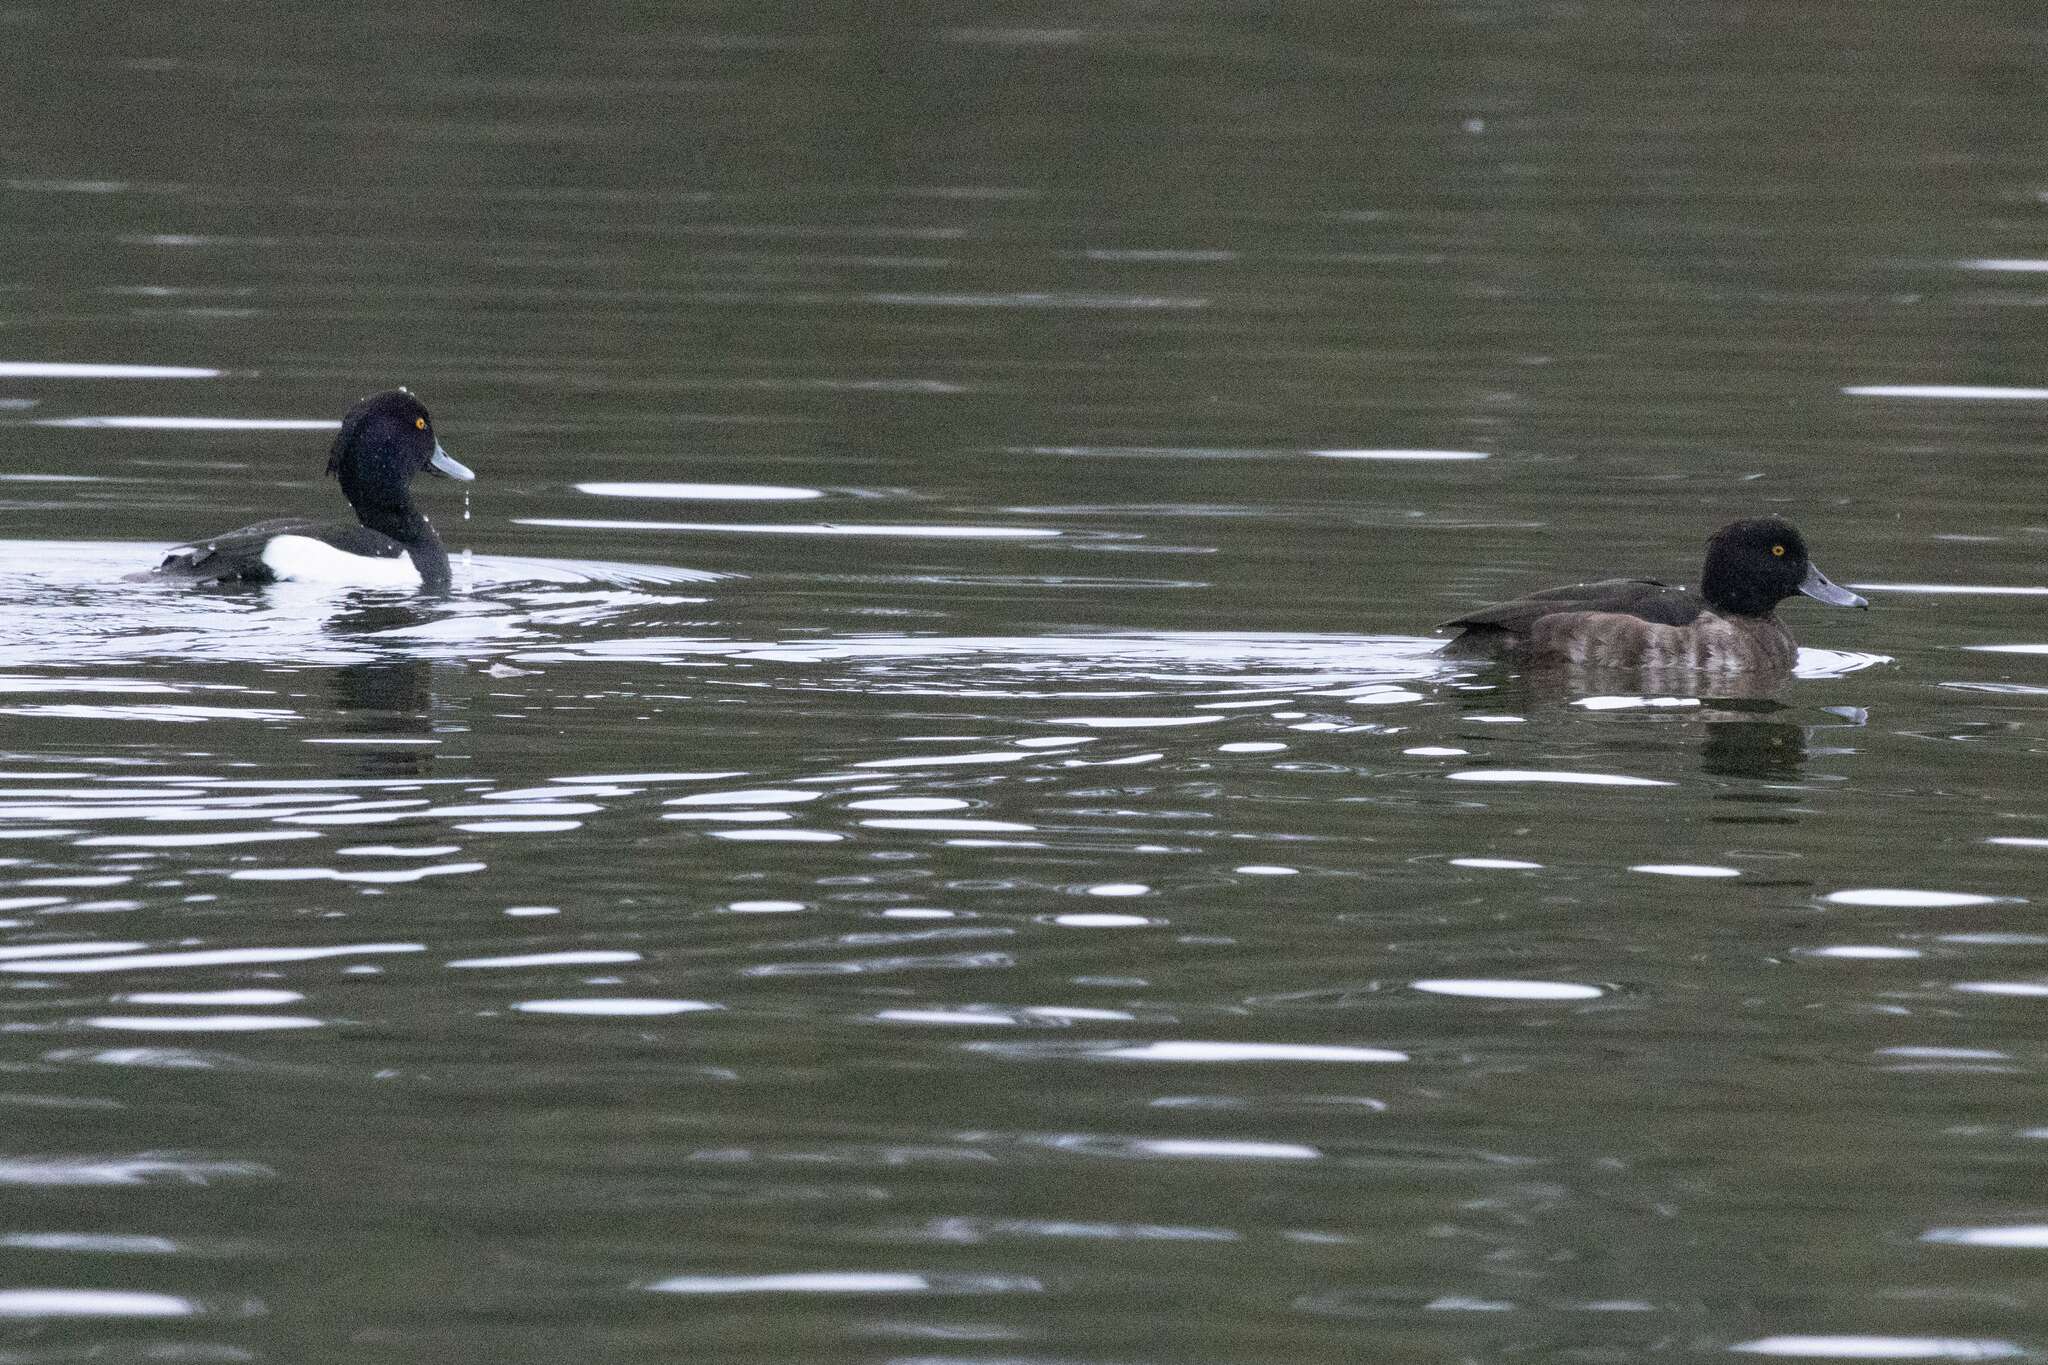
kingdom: Animalia
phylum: Chordata
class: Aves
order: Anseriformes
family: Anatidae
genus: Aythya
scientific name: Aythya fuligula
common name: Tufted duck
